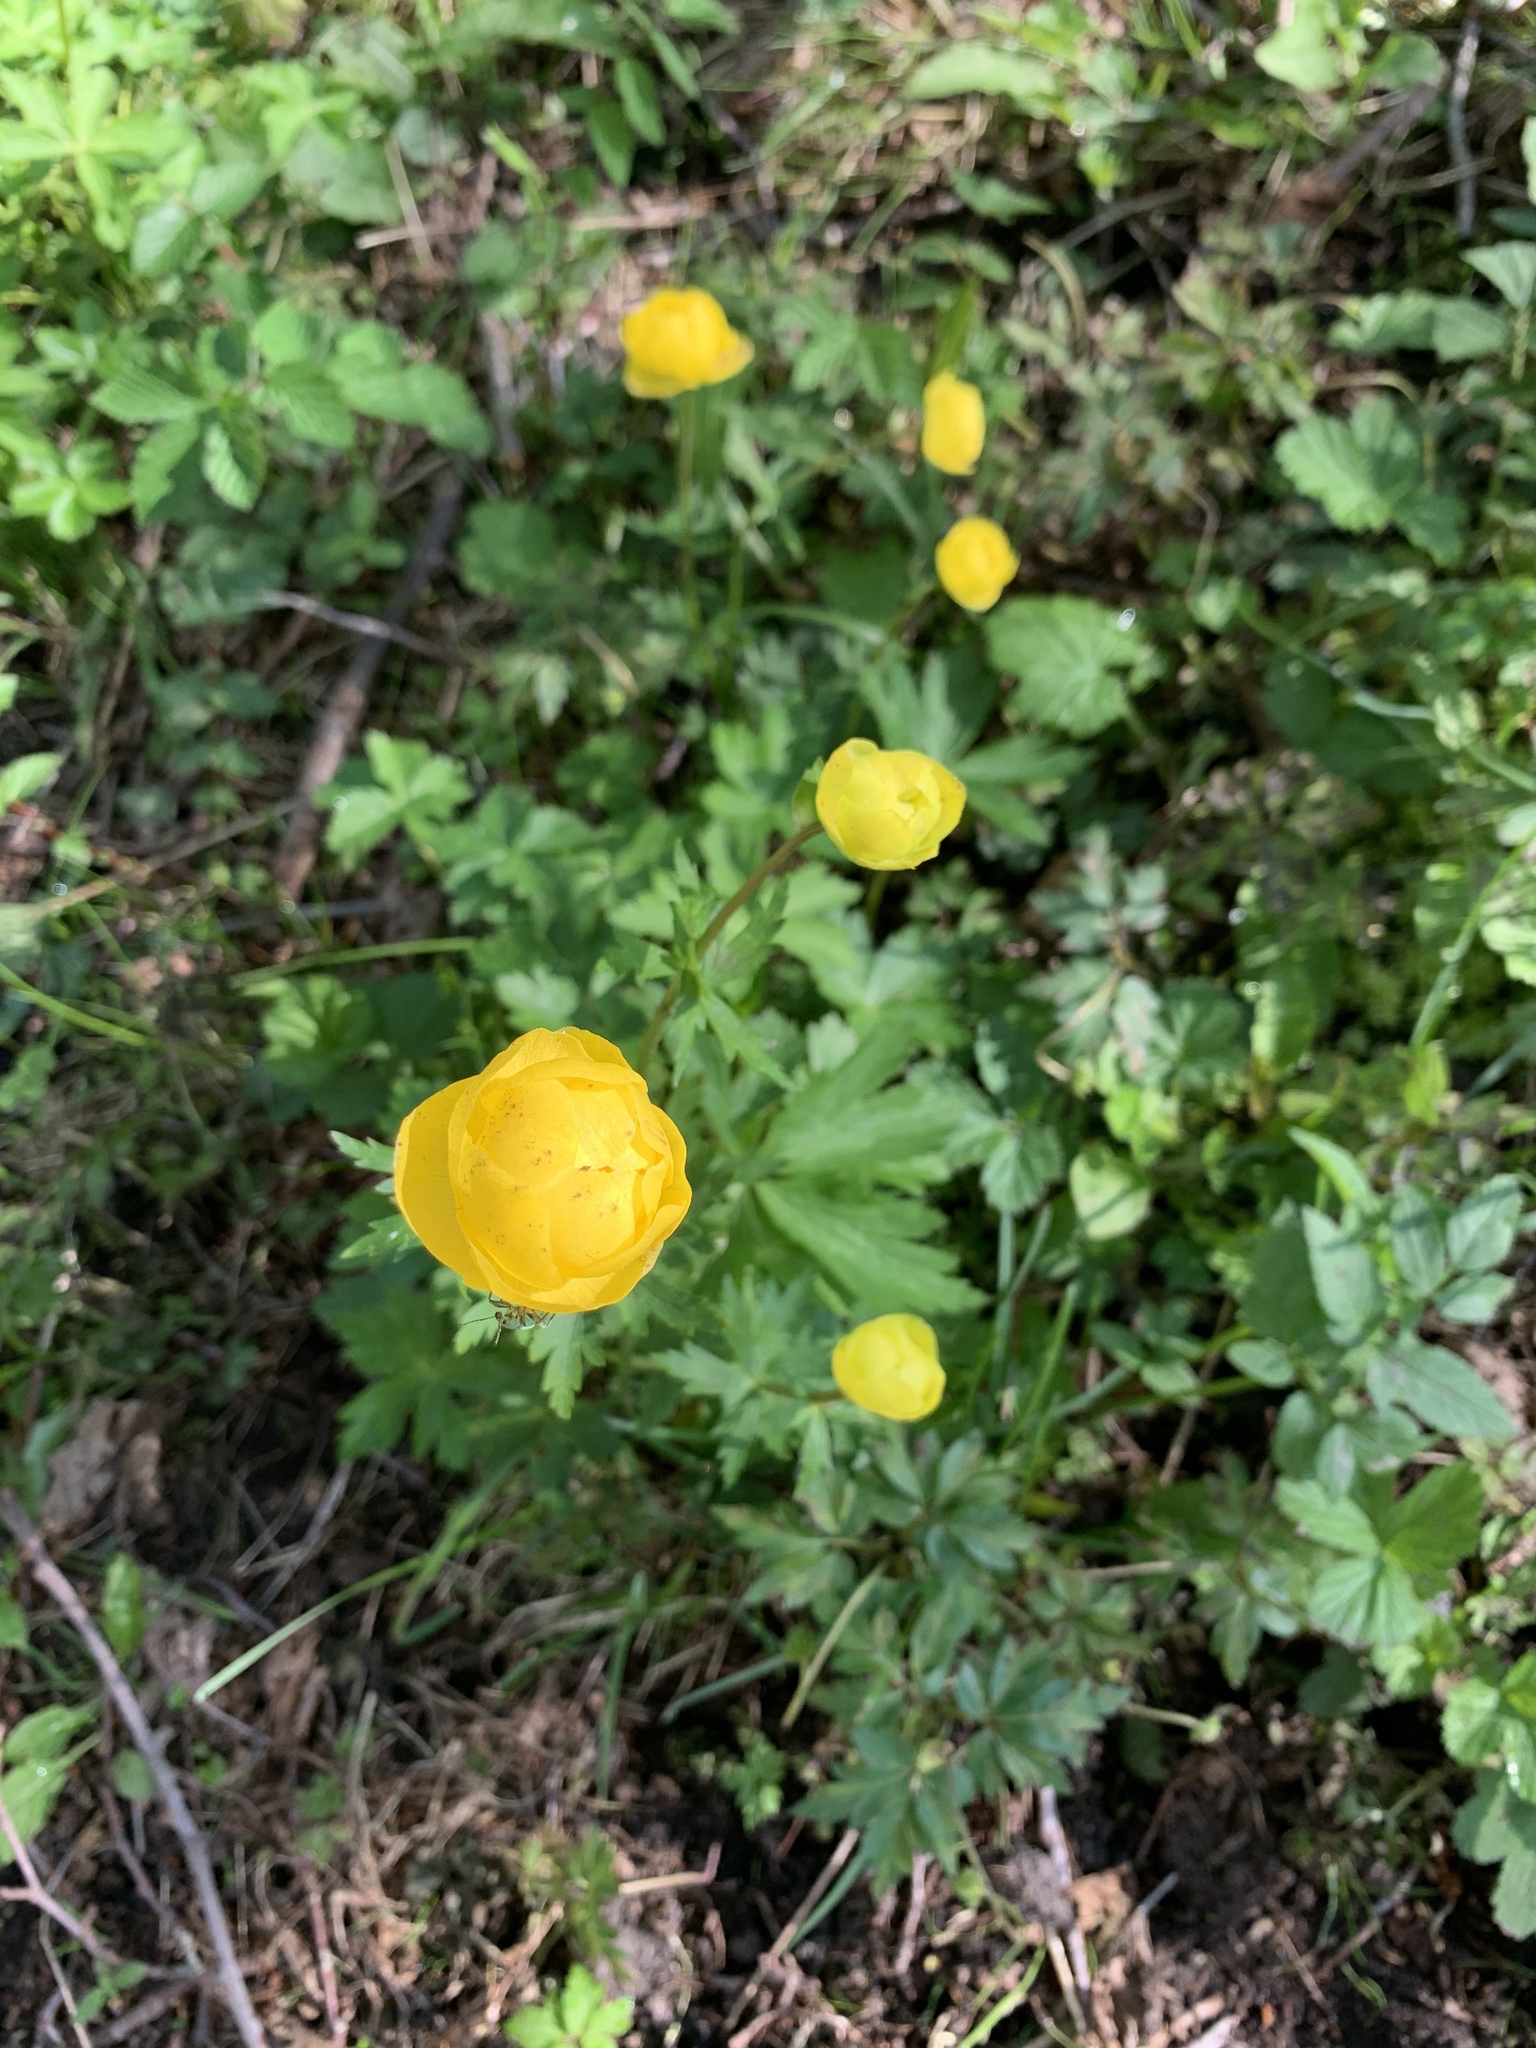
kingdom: Plantae
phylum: Tracheophyta
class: Magnoliopsida
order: Ranunculales
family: Ranunculaceae
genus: Trollius
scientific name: Trollius europaeus
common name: European globeflower
